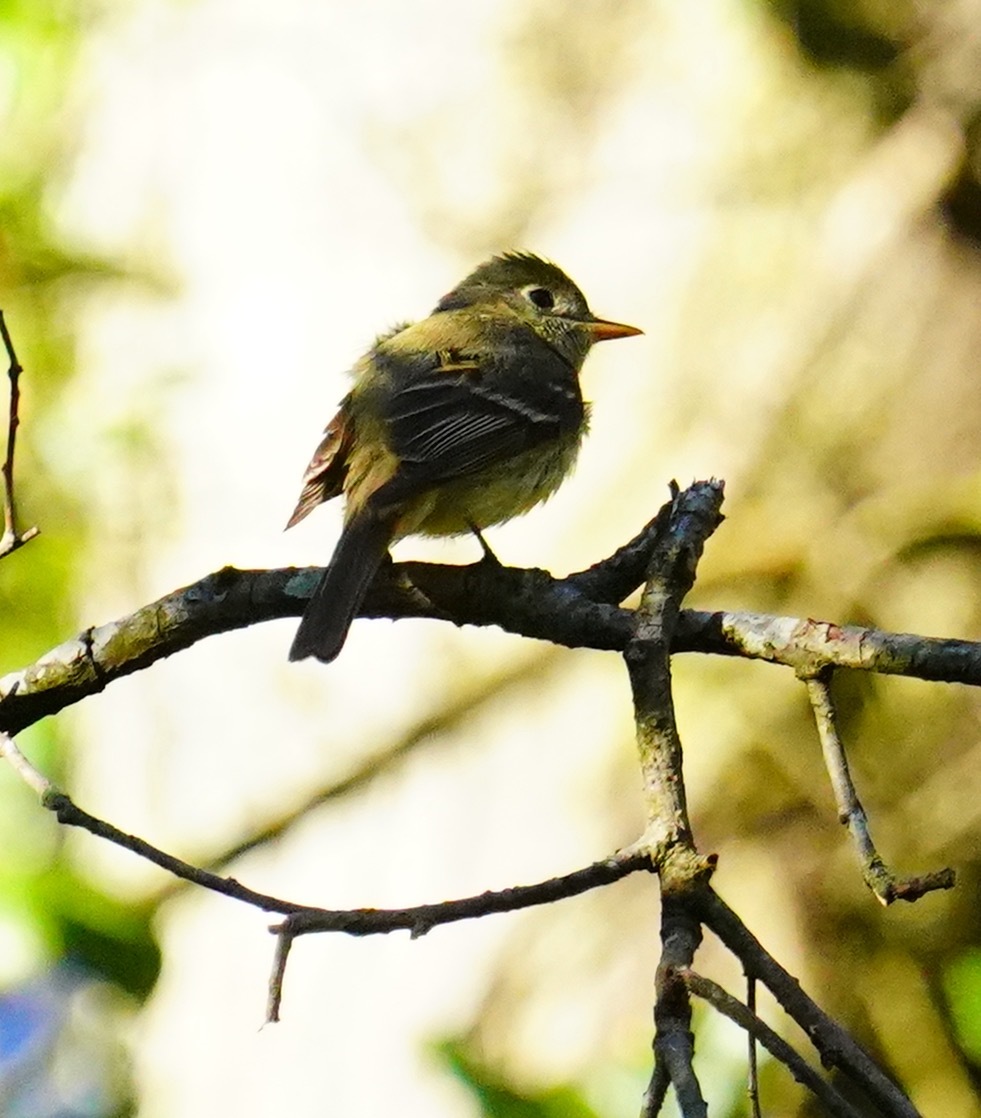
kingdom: Animalia
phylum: Chordata
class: Aves
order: Passeriformes
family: Tyrannidae
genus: Empidonax
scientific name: Empidonax difficilis
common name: Pacific-slope flycatcher
